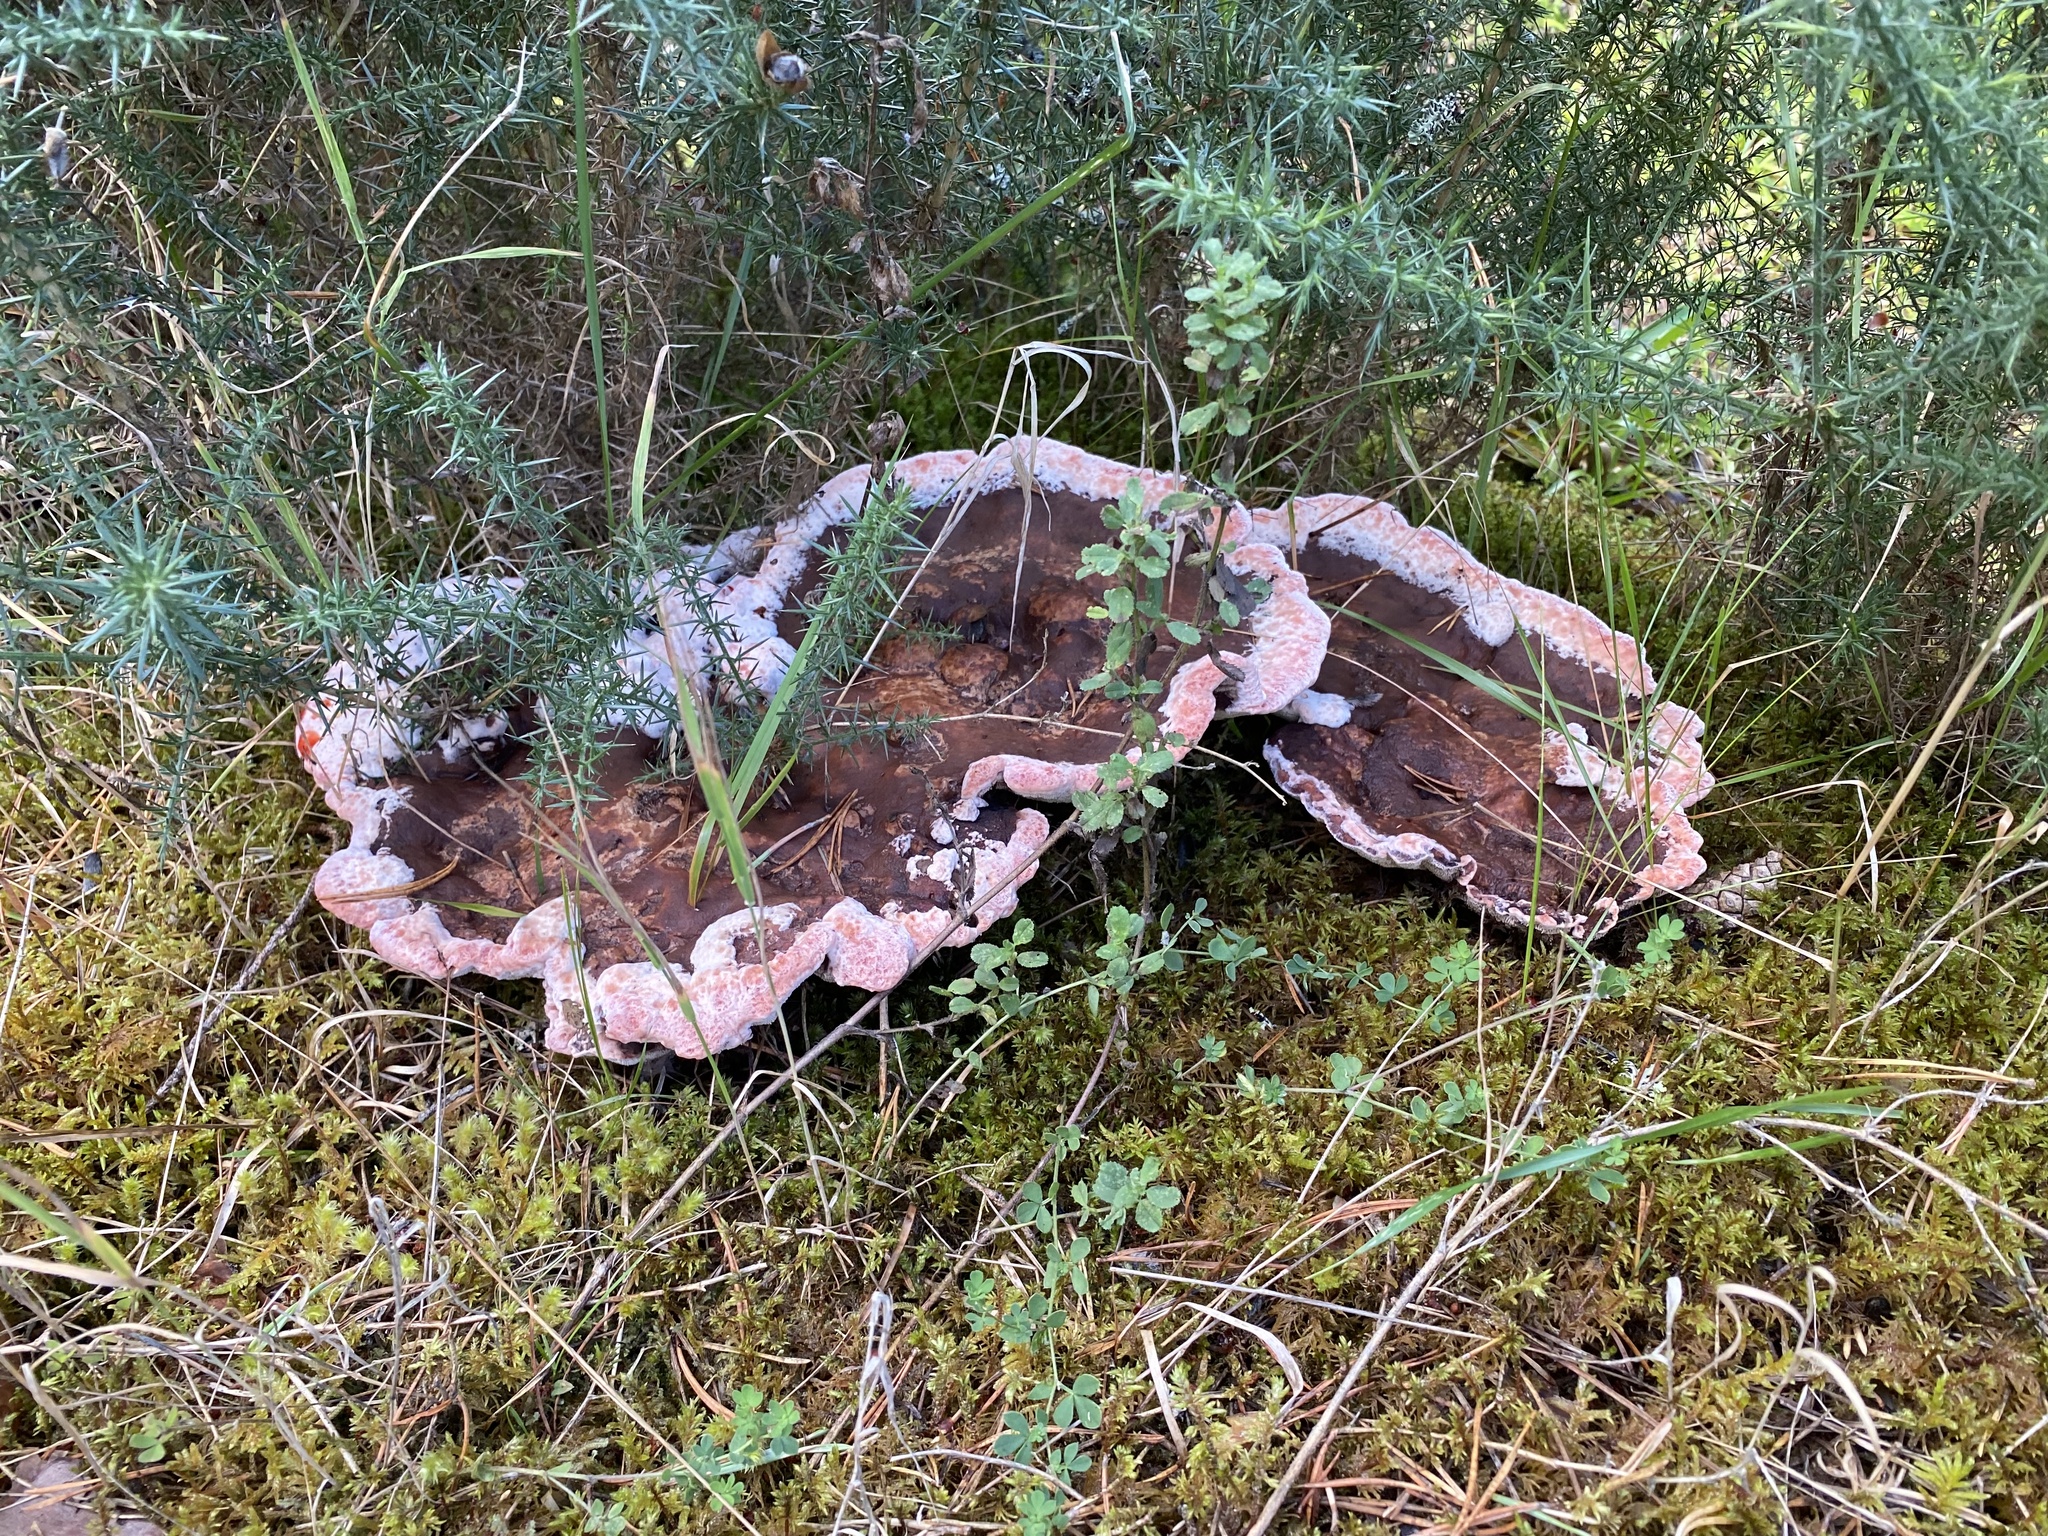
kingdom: Fungi
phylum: Basidiomycota
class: Agaricomycetes
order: Thelephorales
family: Bankeraceae
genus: Hydnellum
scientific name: Hydnellum peckii
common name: Devil's tooth
